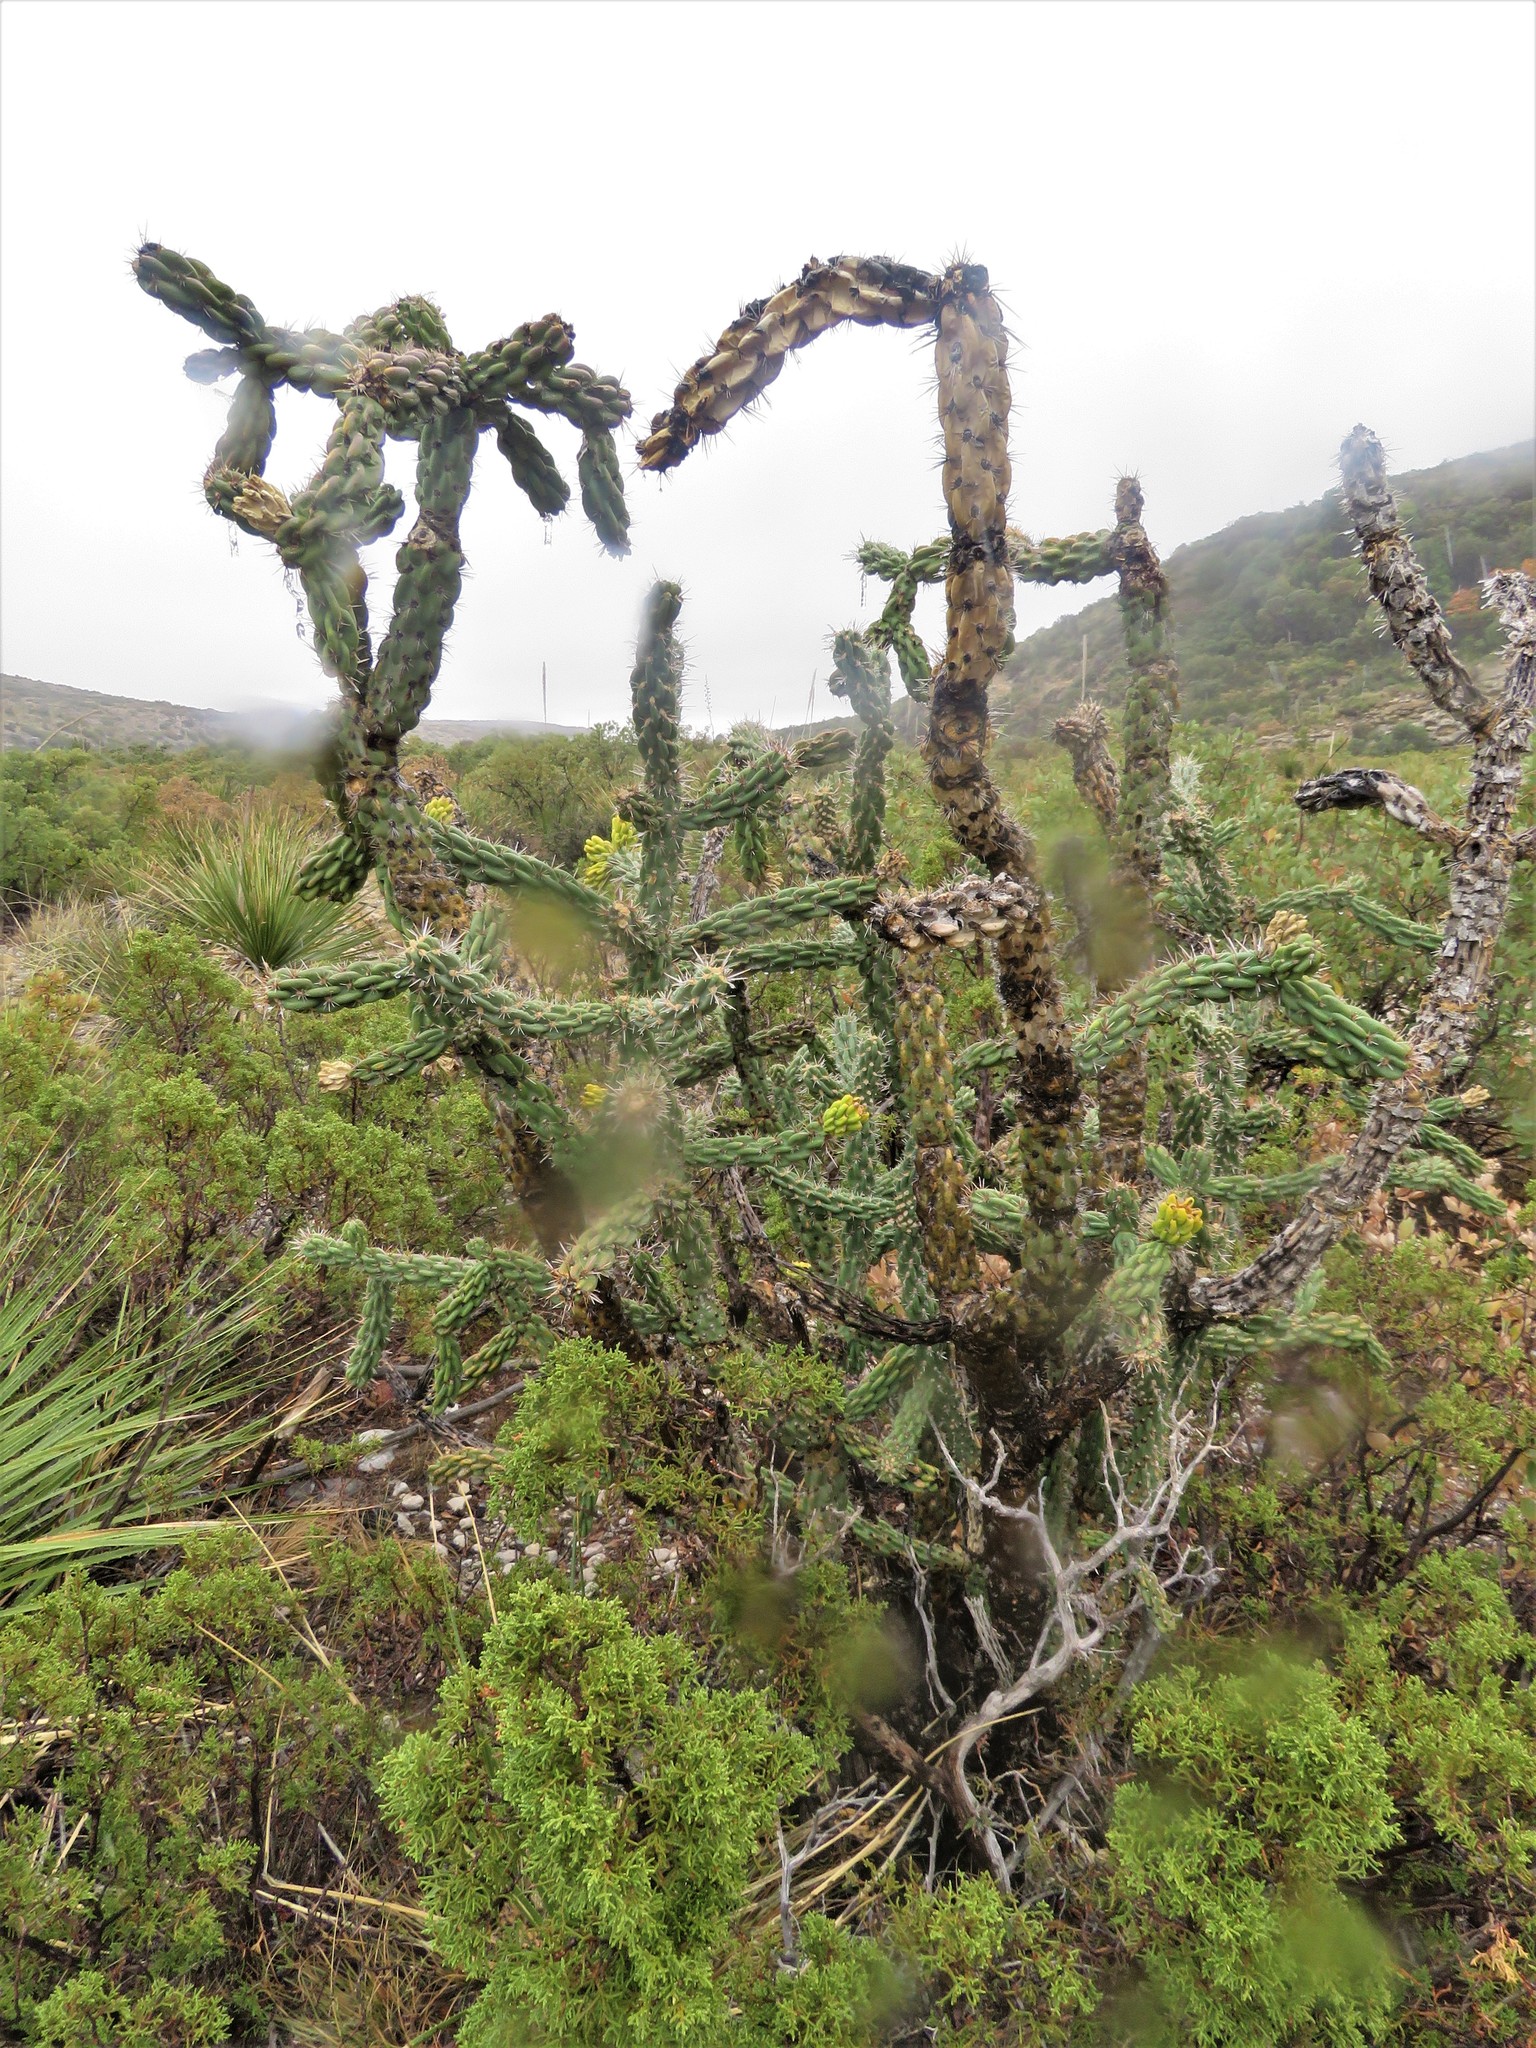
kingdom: Plantae
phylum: Tracheophyta
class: Magnoliopsida
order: Caryophyllales
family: Cactaceae
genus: Cylindropuntia
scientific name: Cylindropuntia imbricata
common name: Candelabrum cactus
